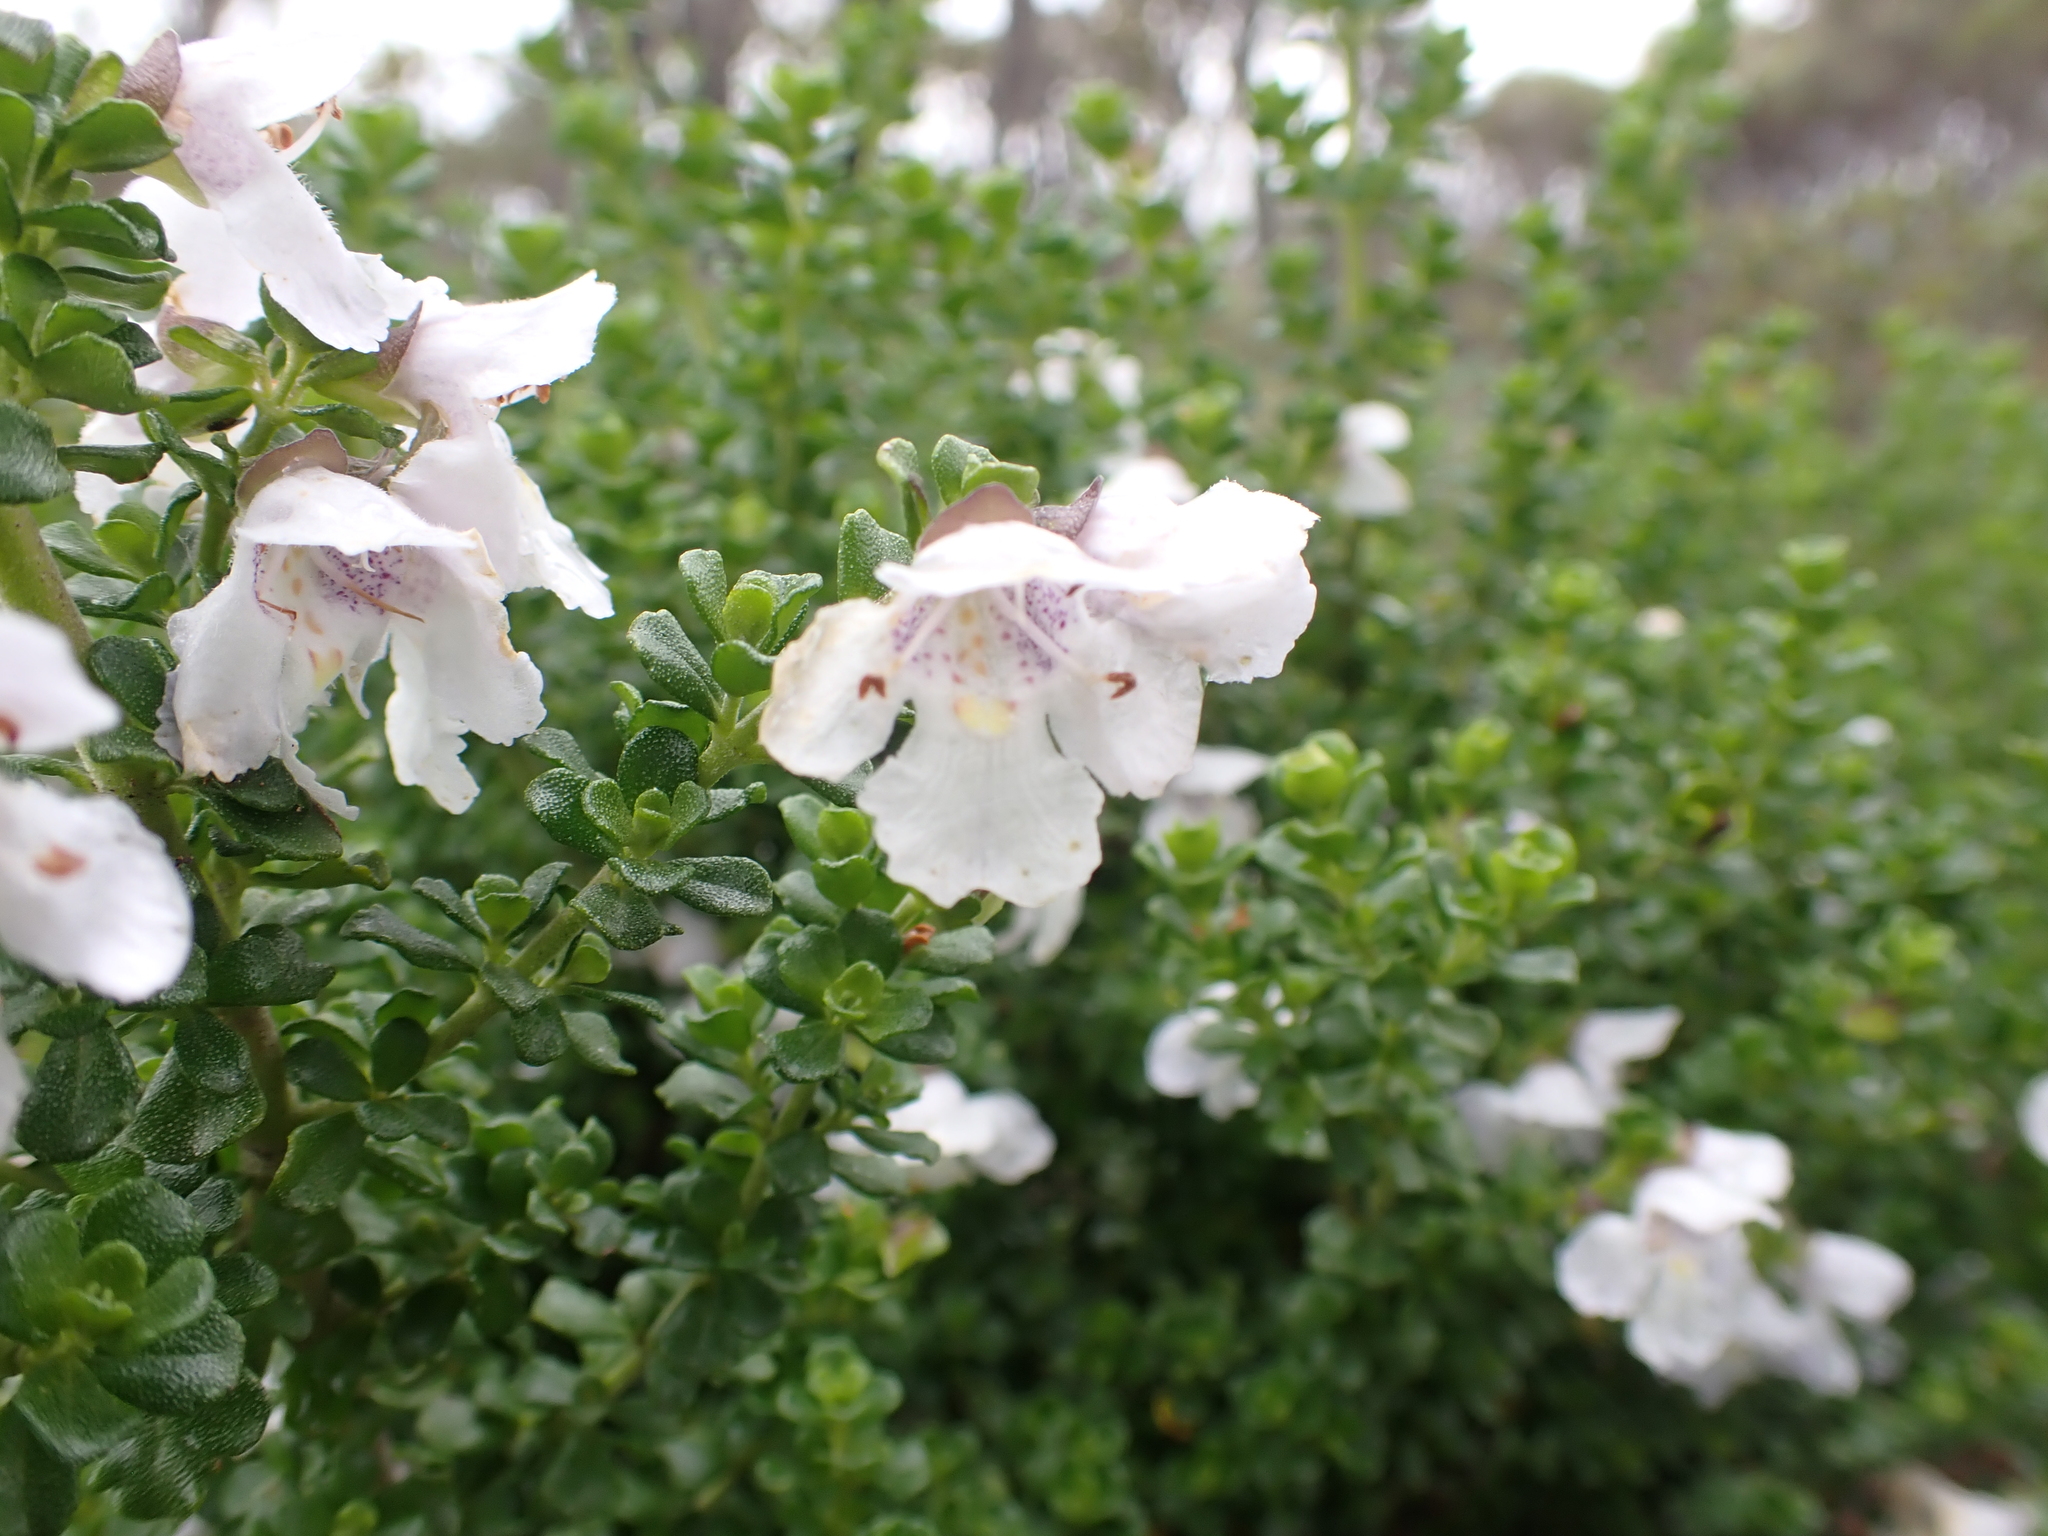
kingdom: Plantae
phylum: Tracheophyta
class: Magnoliopsida
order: Lamiales
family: Lamiaceae
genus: Prostanthera
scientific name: Prostanthera cuneata
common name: Alpine mintbush
